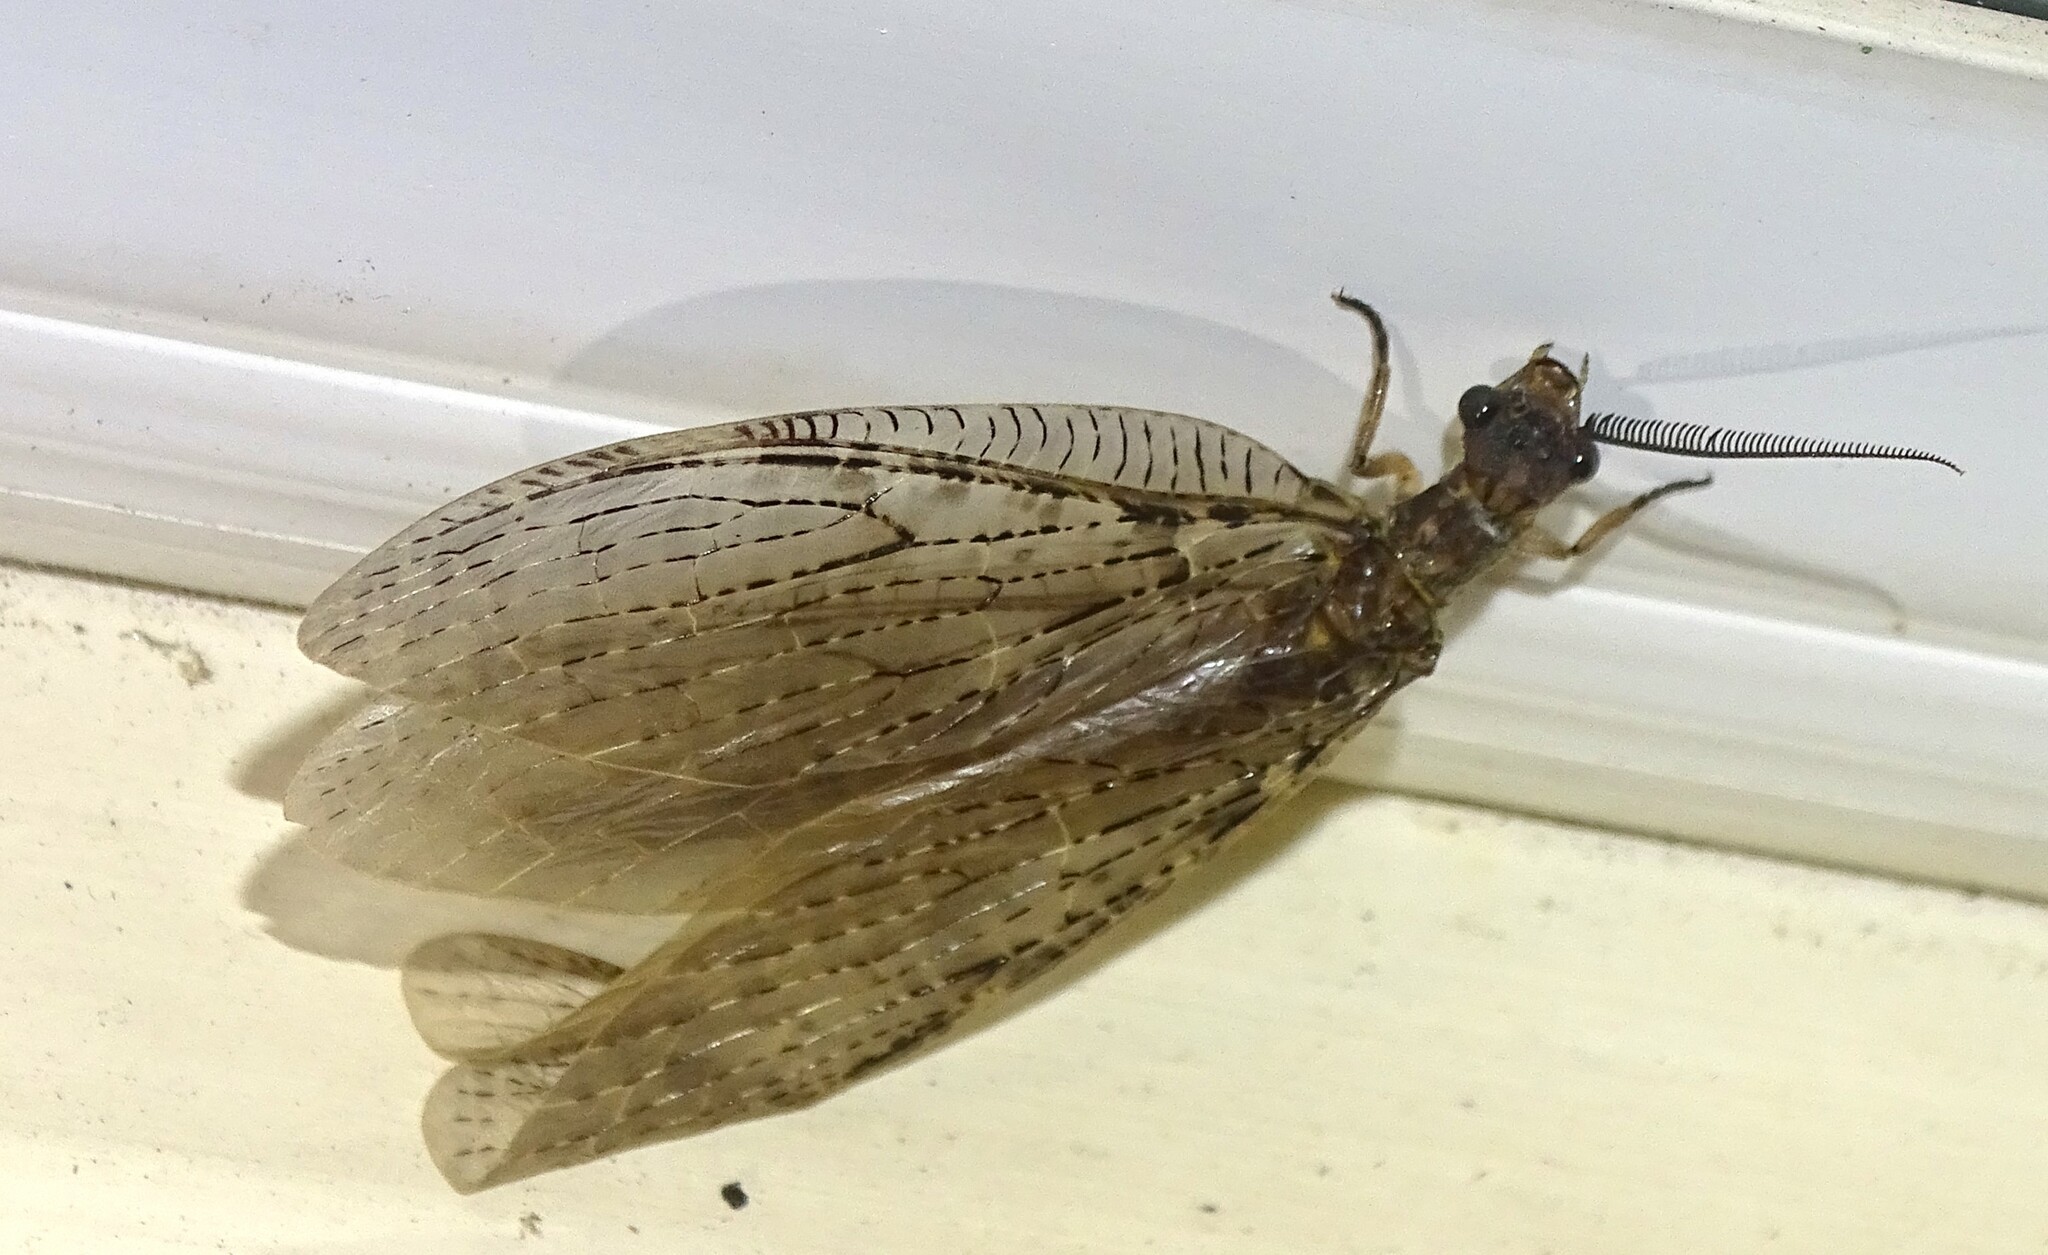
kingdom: Animalia
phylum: Arthropoda
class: Insecta
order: Megaloptera
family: Corydalidae
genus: Chauliodes
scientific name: Chauliodes pectinicornis
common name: Summer fishfly
